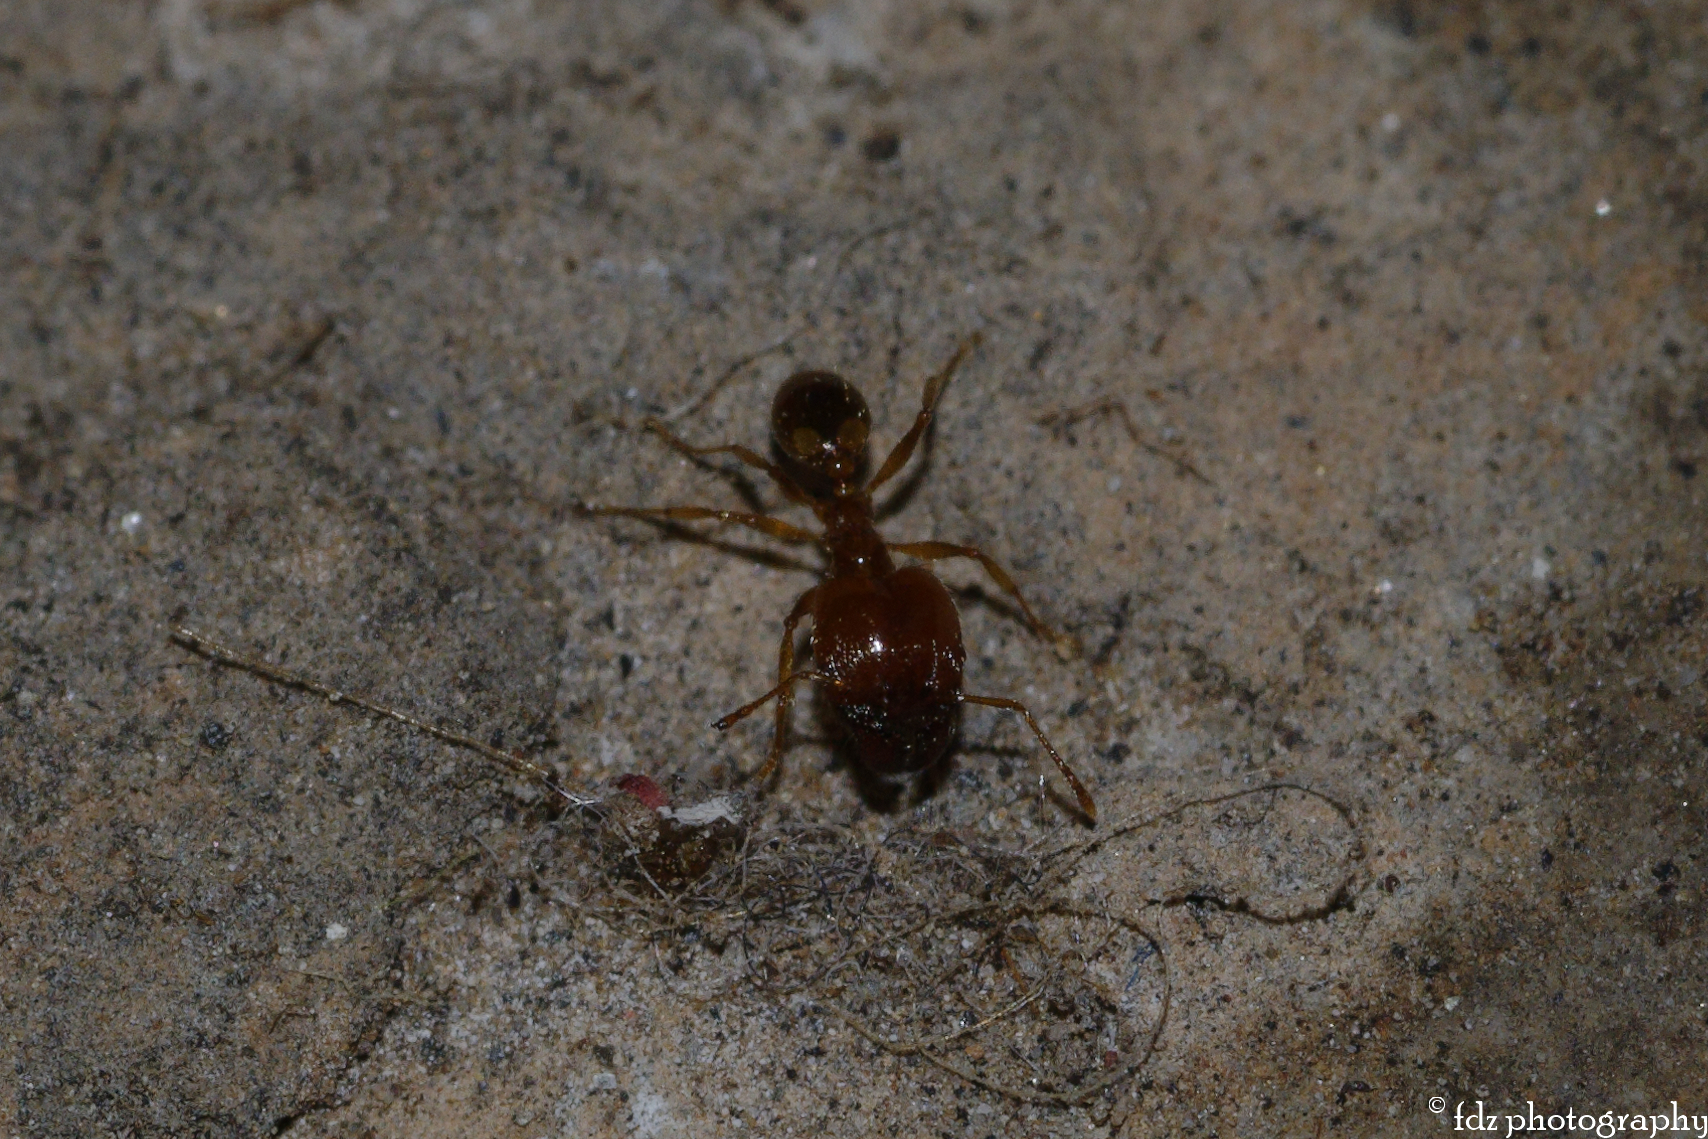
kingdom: Animalia
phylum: Arthropoda
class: Insecta
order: Hymenoptera
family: Formicidae
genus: Pheidole
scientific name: Pheidole pallidula
